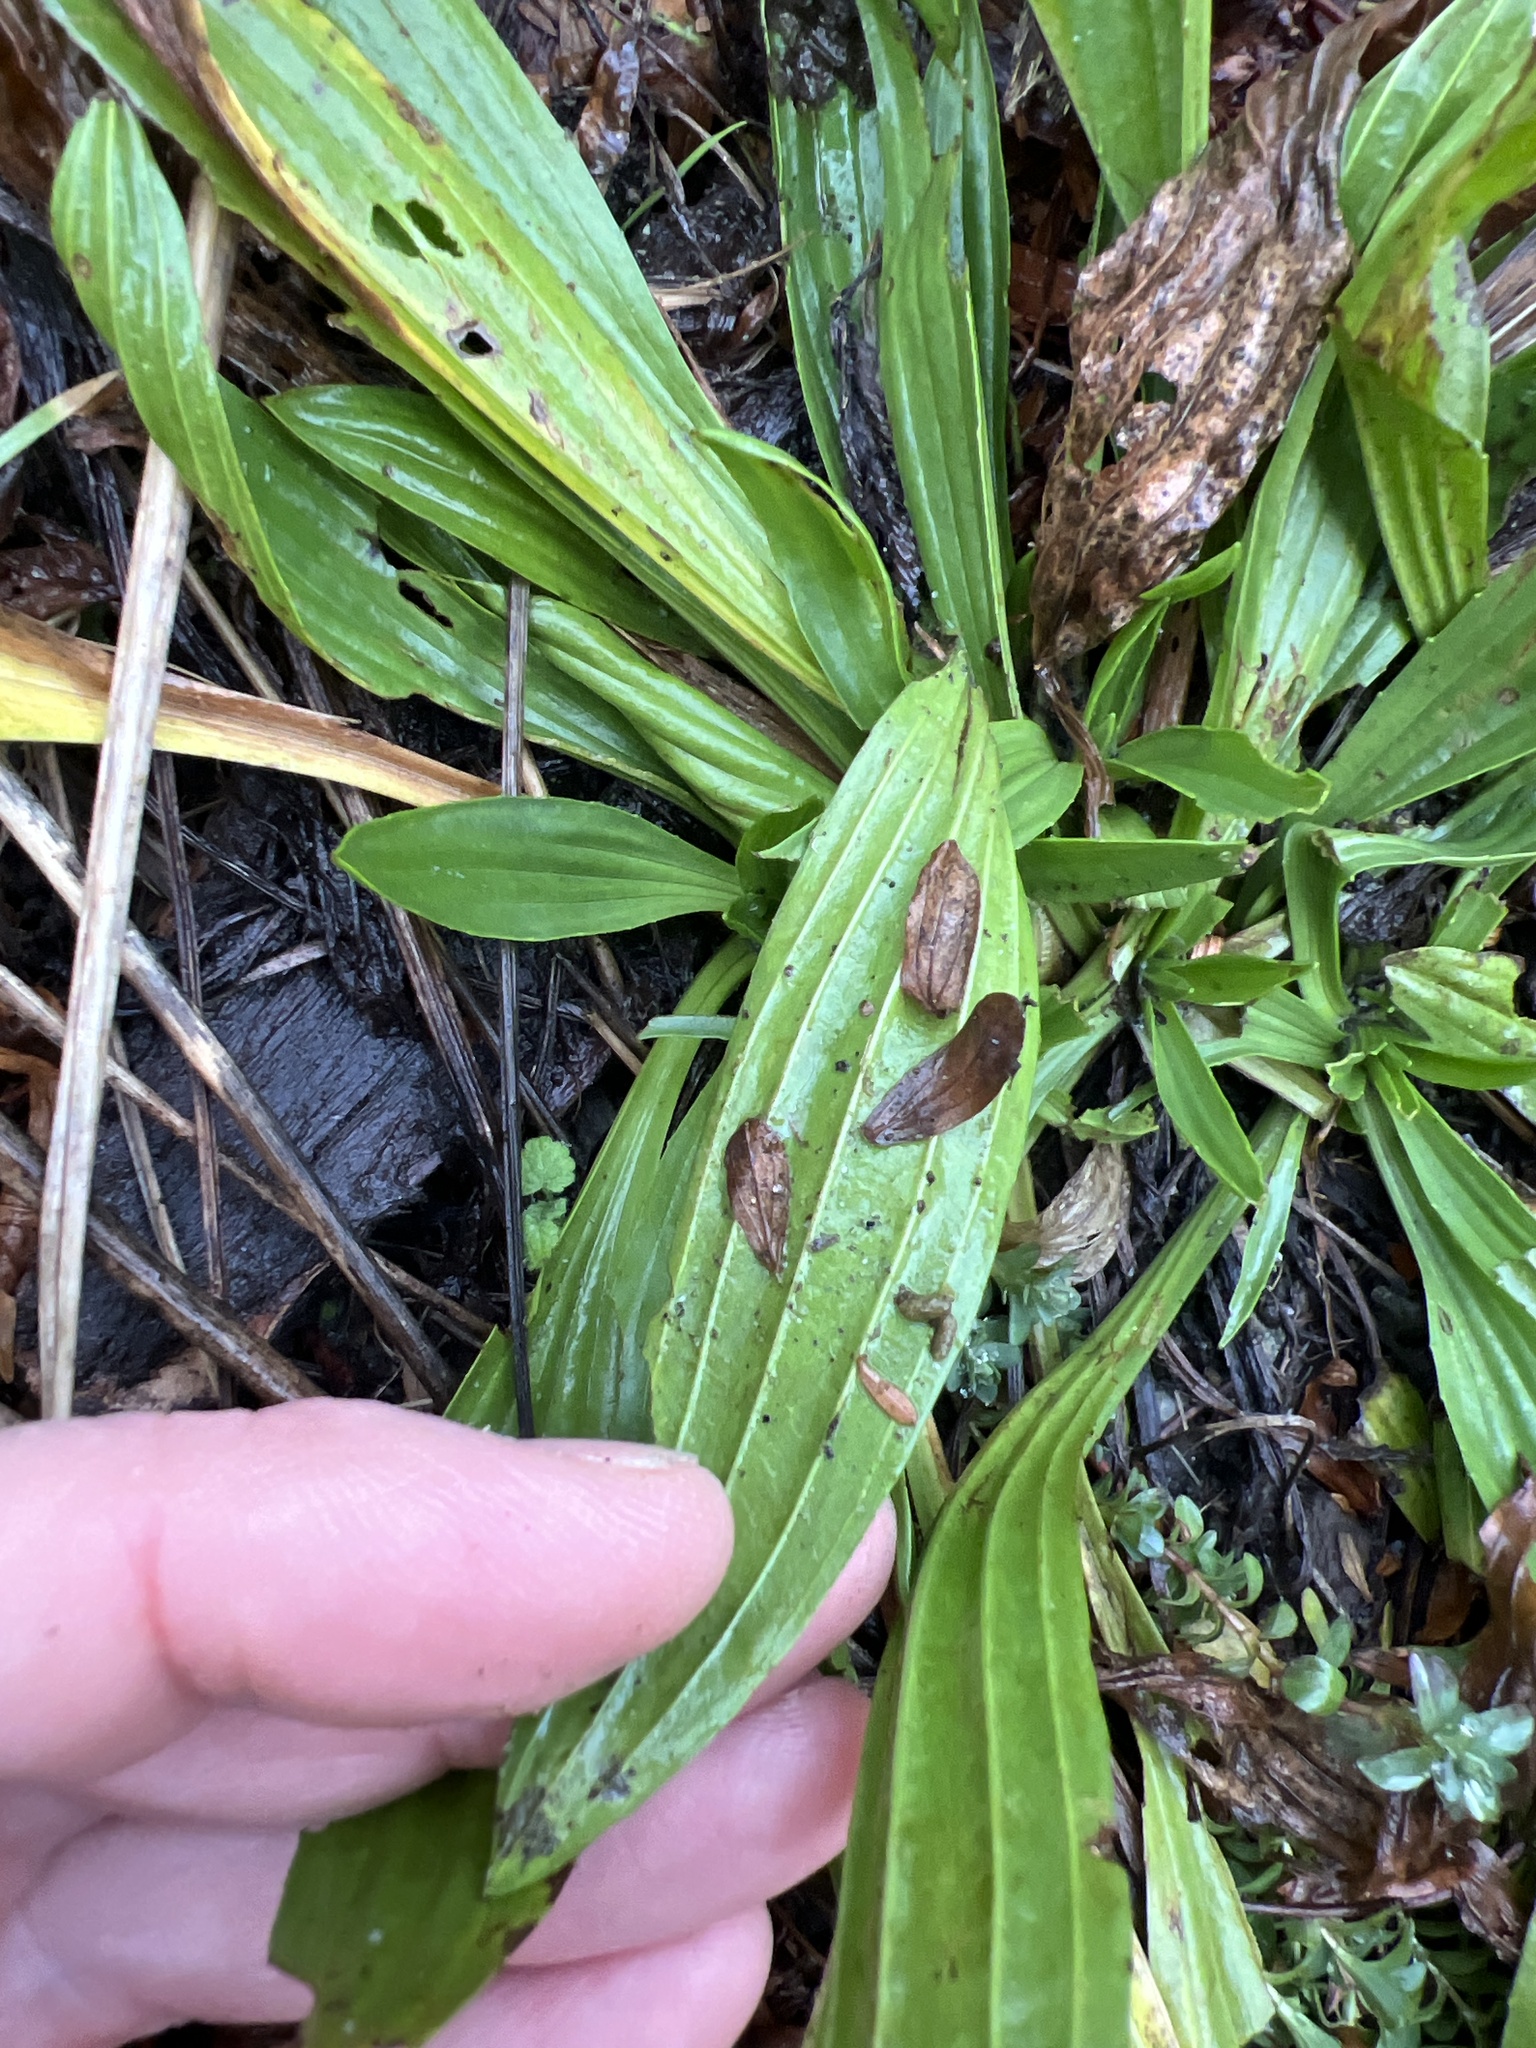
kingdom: Plantae
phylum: Tracheophyta
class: Magnoliopsida
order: Lamiales
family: Plantaginaceae
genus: Plantago
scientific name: Plantago lanceolata
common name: Ribwort plantain
